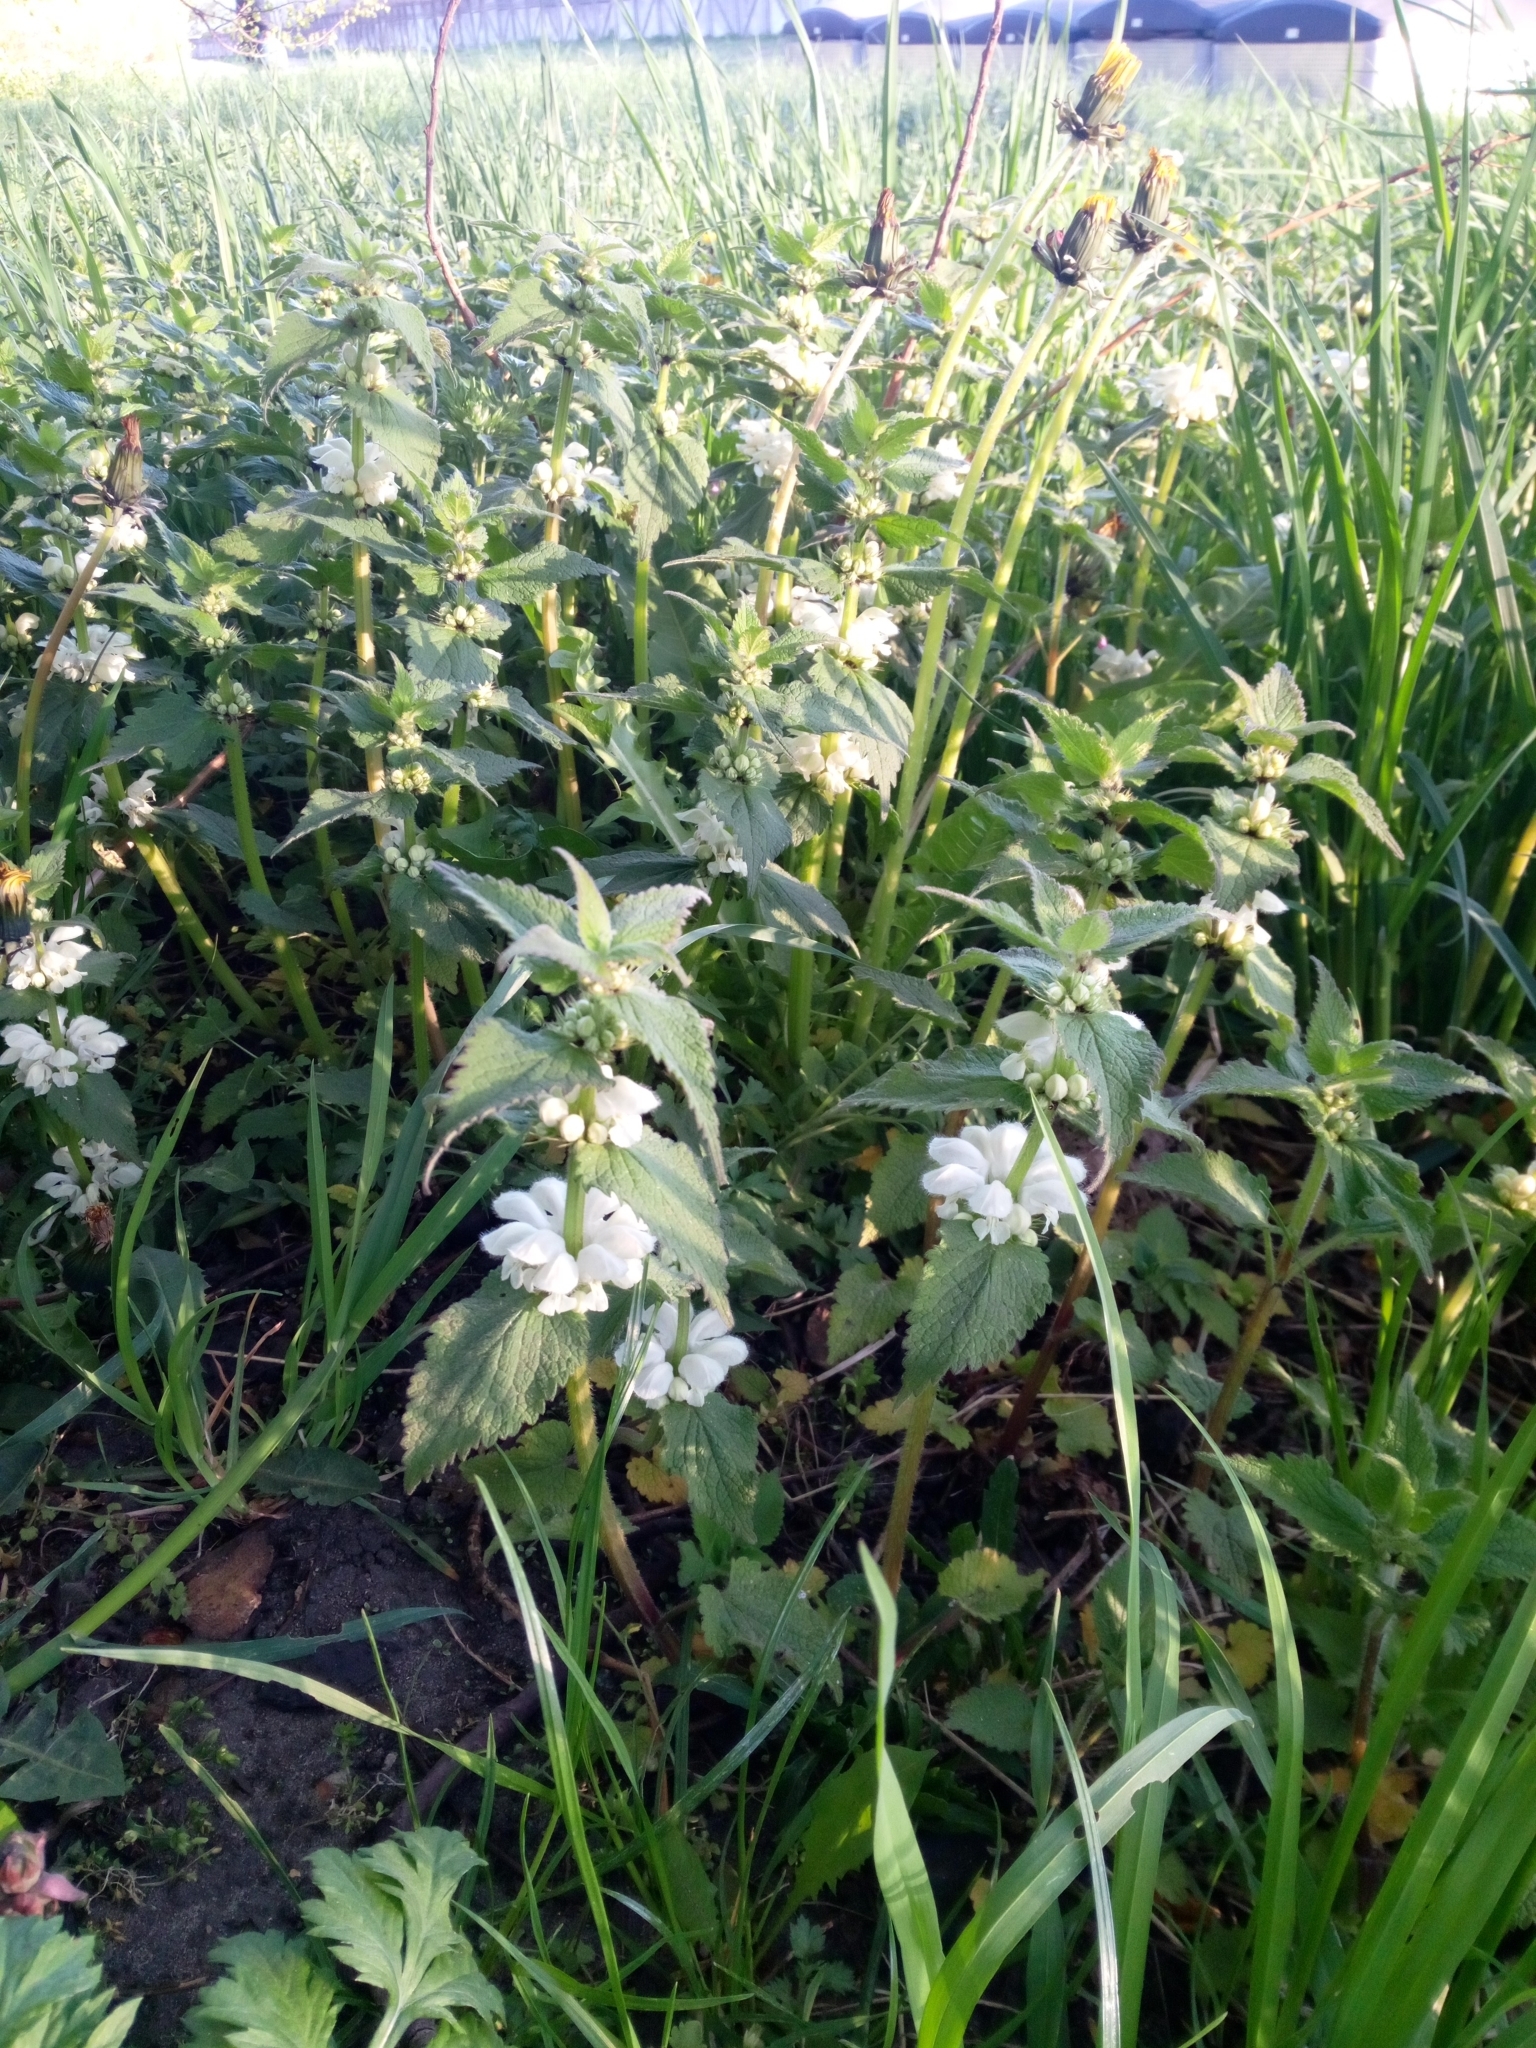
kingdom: Plantae
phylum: Tracheophyta
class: Magnoliopsida
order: Lamiales
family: Lamiaceae
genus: Lamium
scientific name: Lamium album
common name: White dead-nettle
